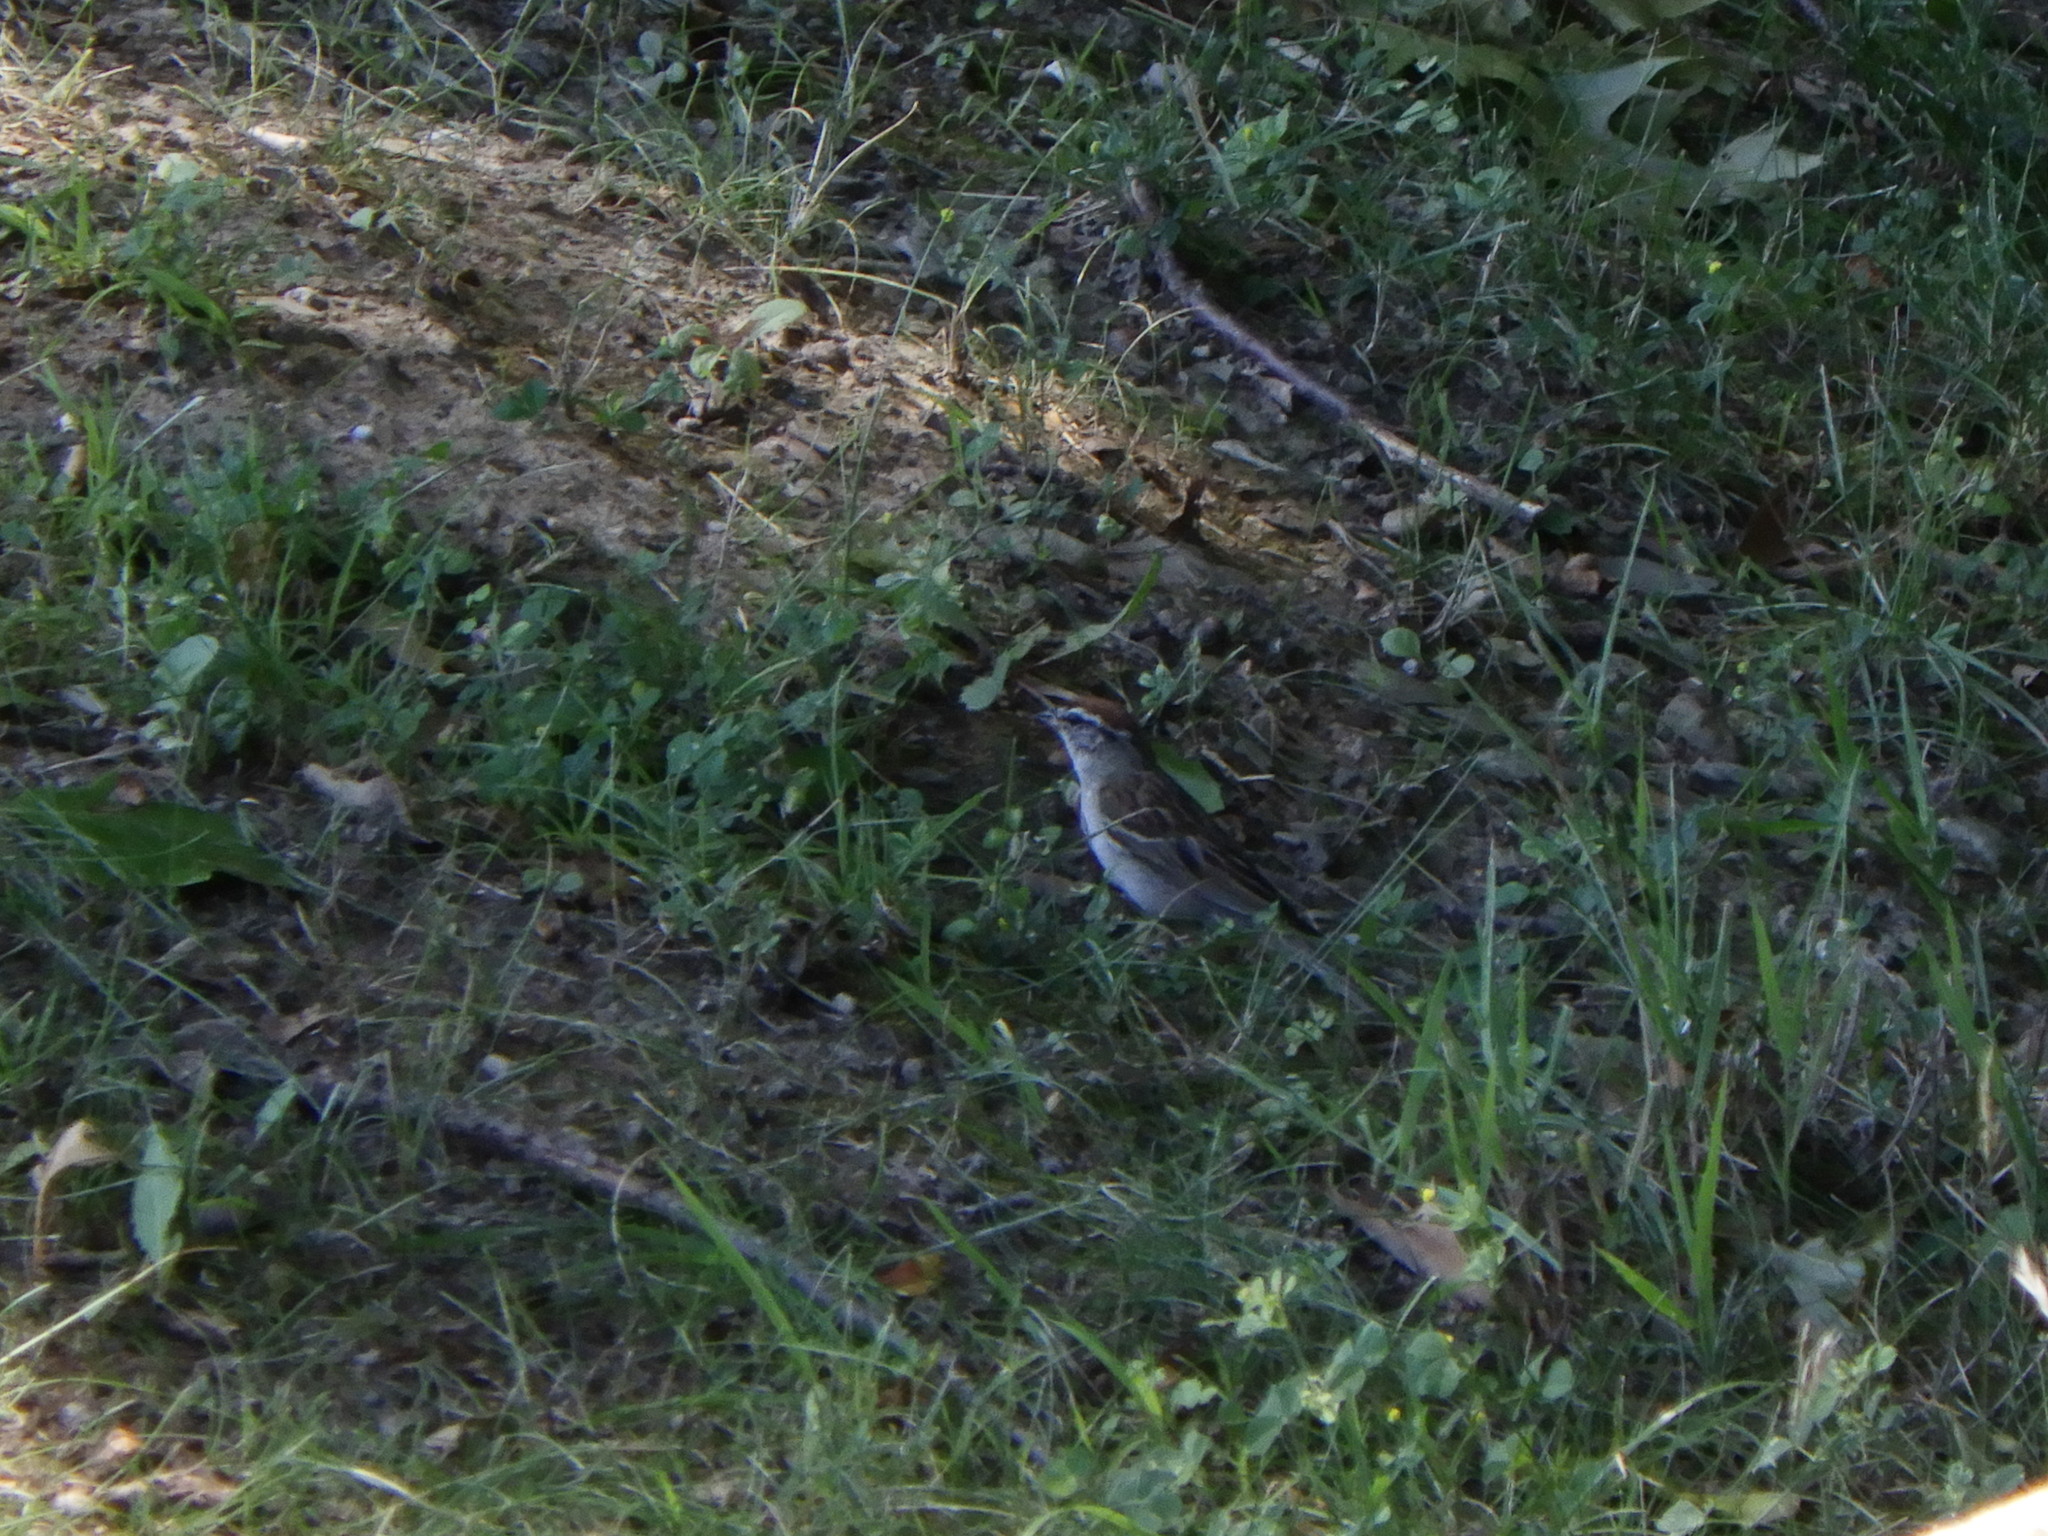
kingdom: Animalia
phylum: Chordata
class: Aves
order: Passeriformes
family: Passerellidae
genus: Spizella
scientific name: Spizella passerina
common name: Chipping sparrow
